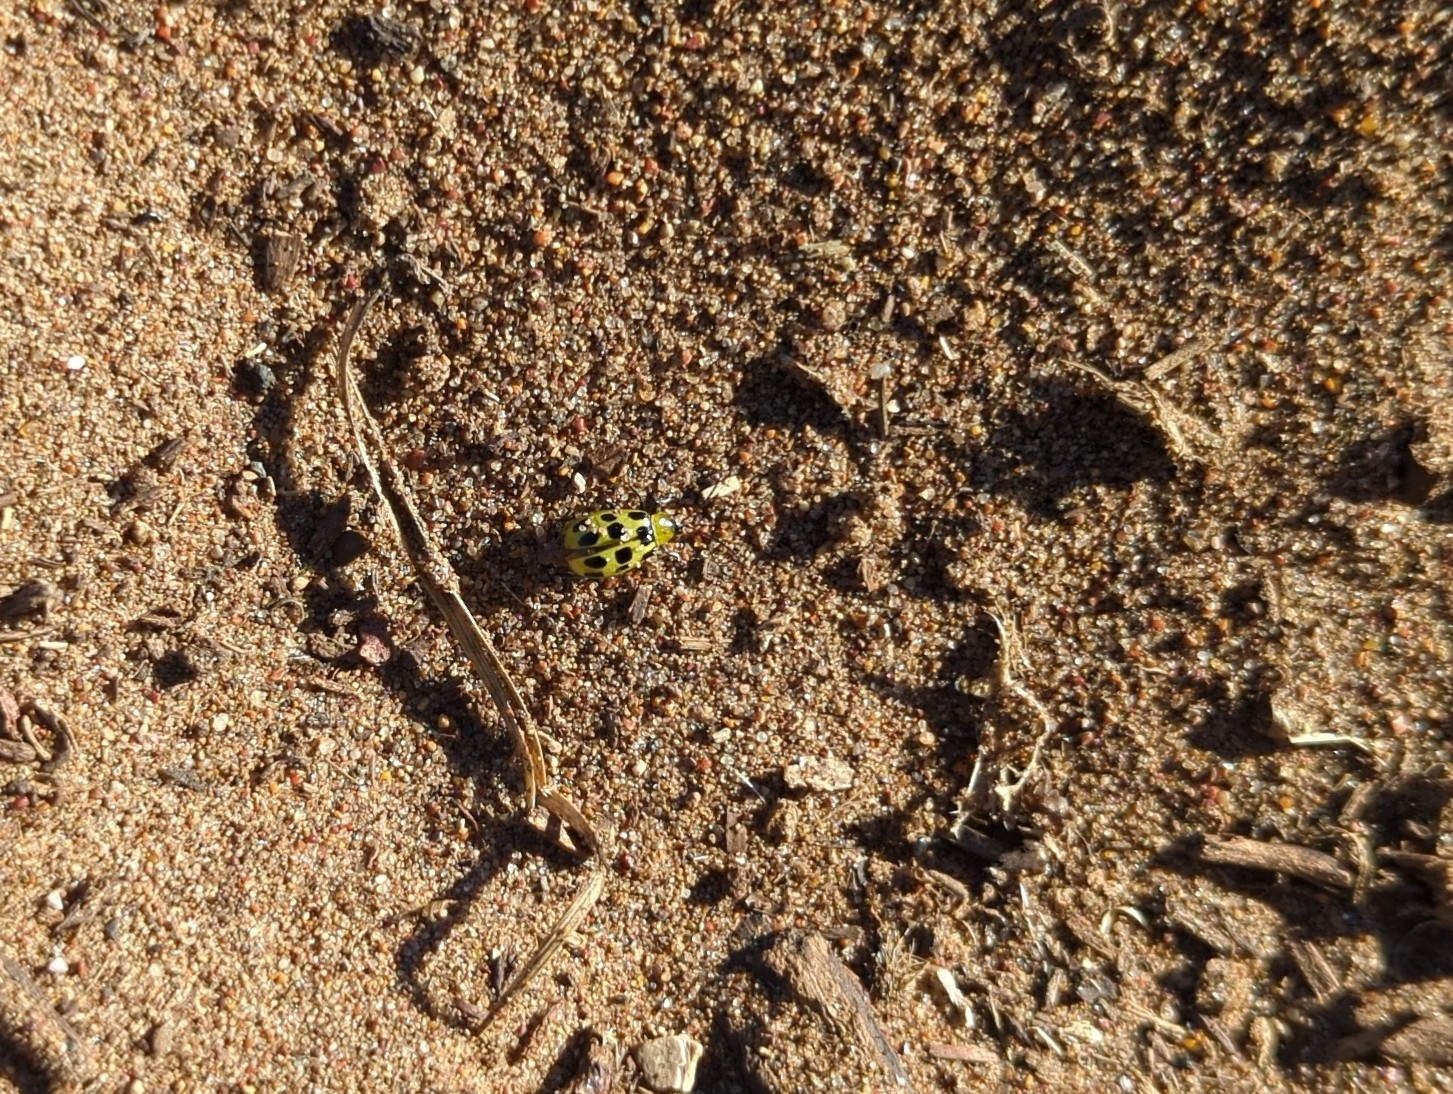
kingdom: Animalia
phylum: Arthropoda
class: Insecta
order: Coleoptera
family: Chrysomelidae
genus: Diabrotica
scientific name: Diabrotica undecimpunctata
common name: Spotted cucumber beetle
